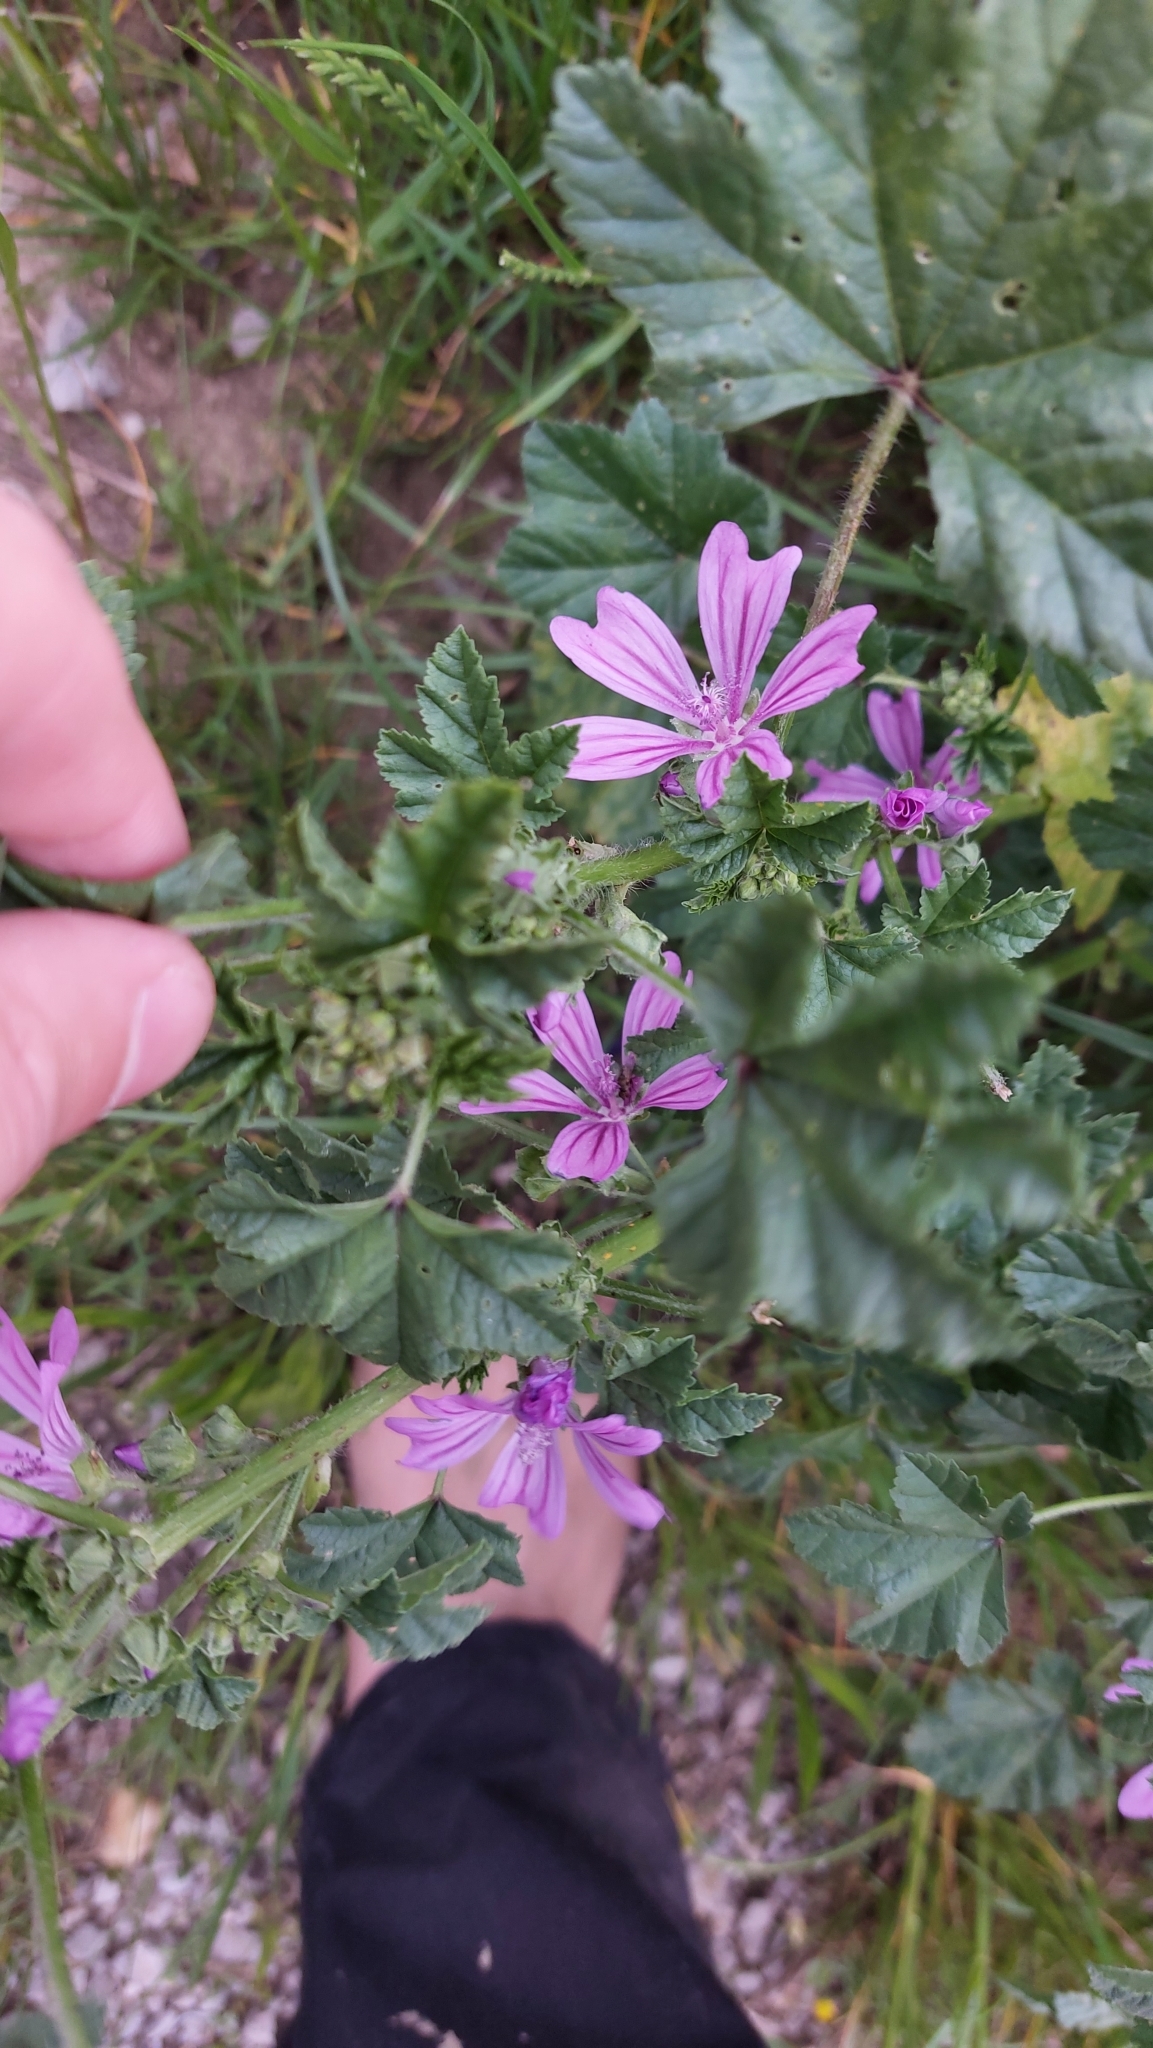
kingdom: Plantae
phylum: Tracheophyta
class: Magnoliopsida
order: Malvales
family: Malvaceae
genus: Malva
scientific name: Malva sylvestris
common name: Common mallow
